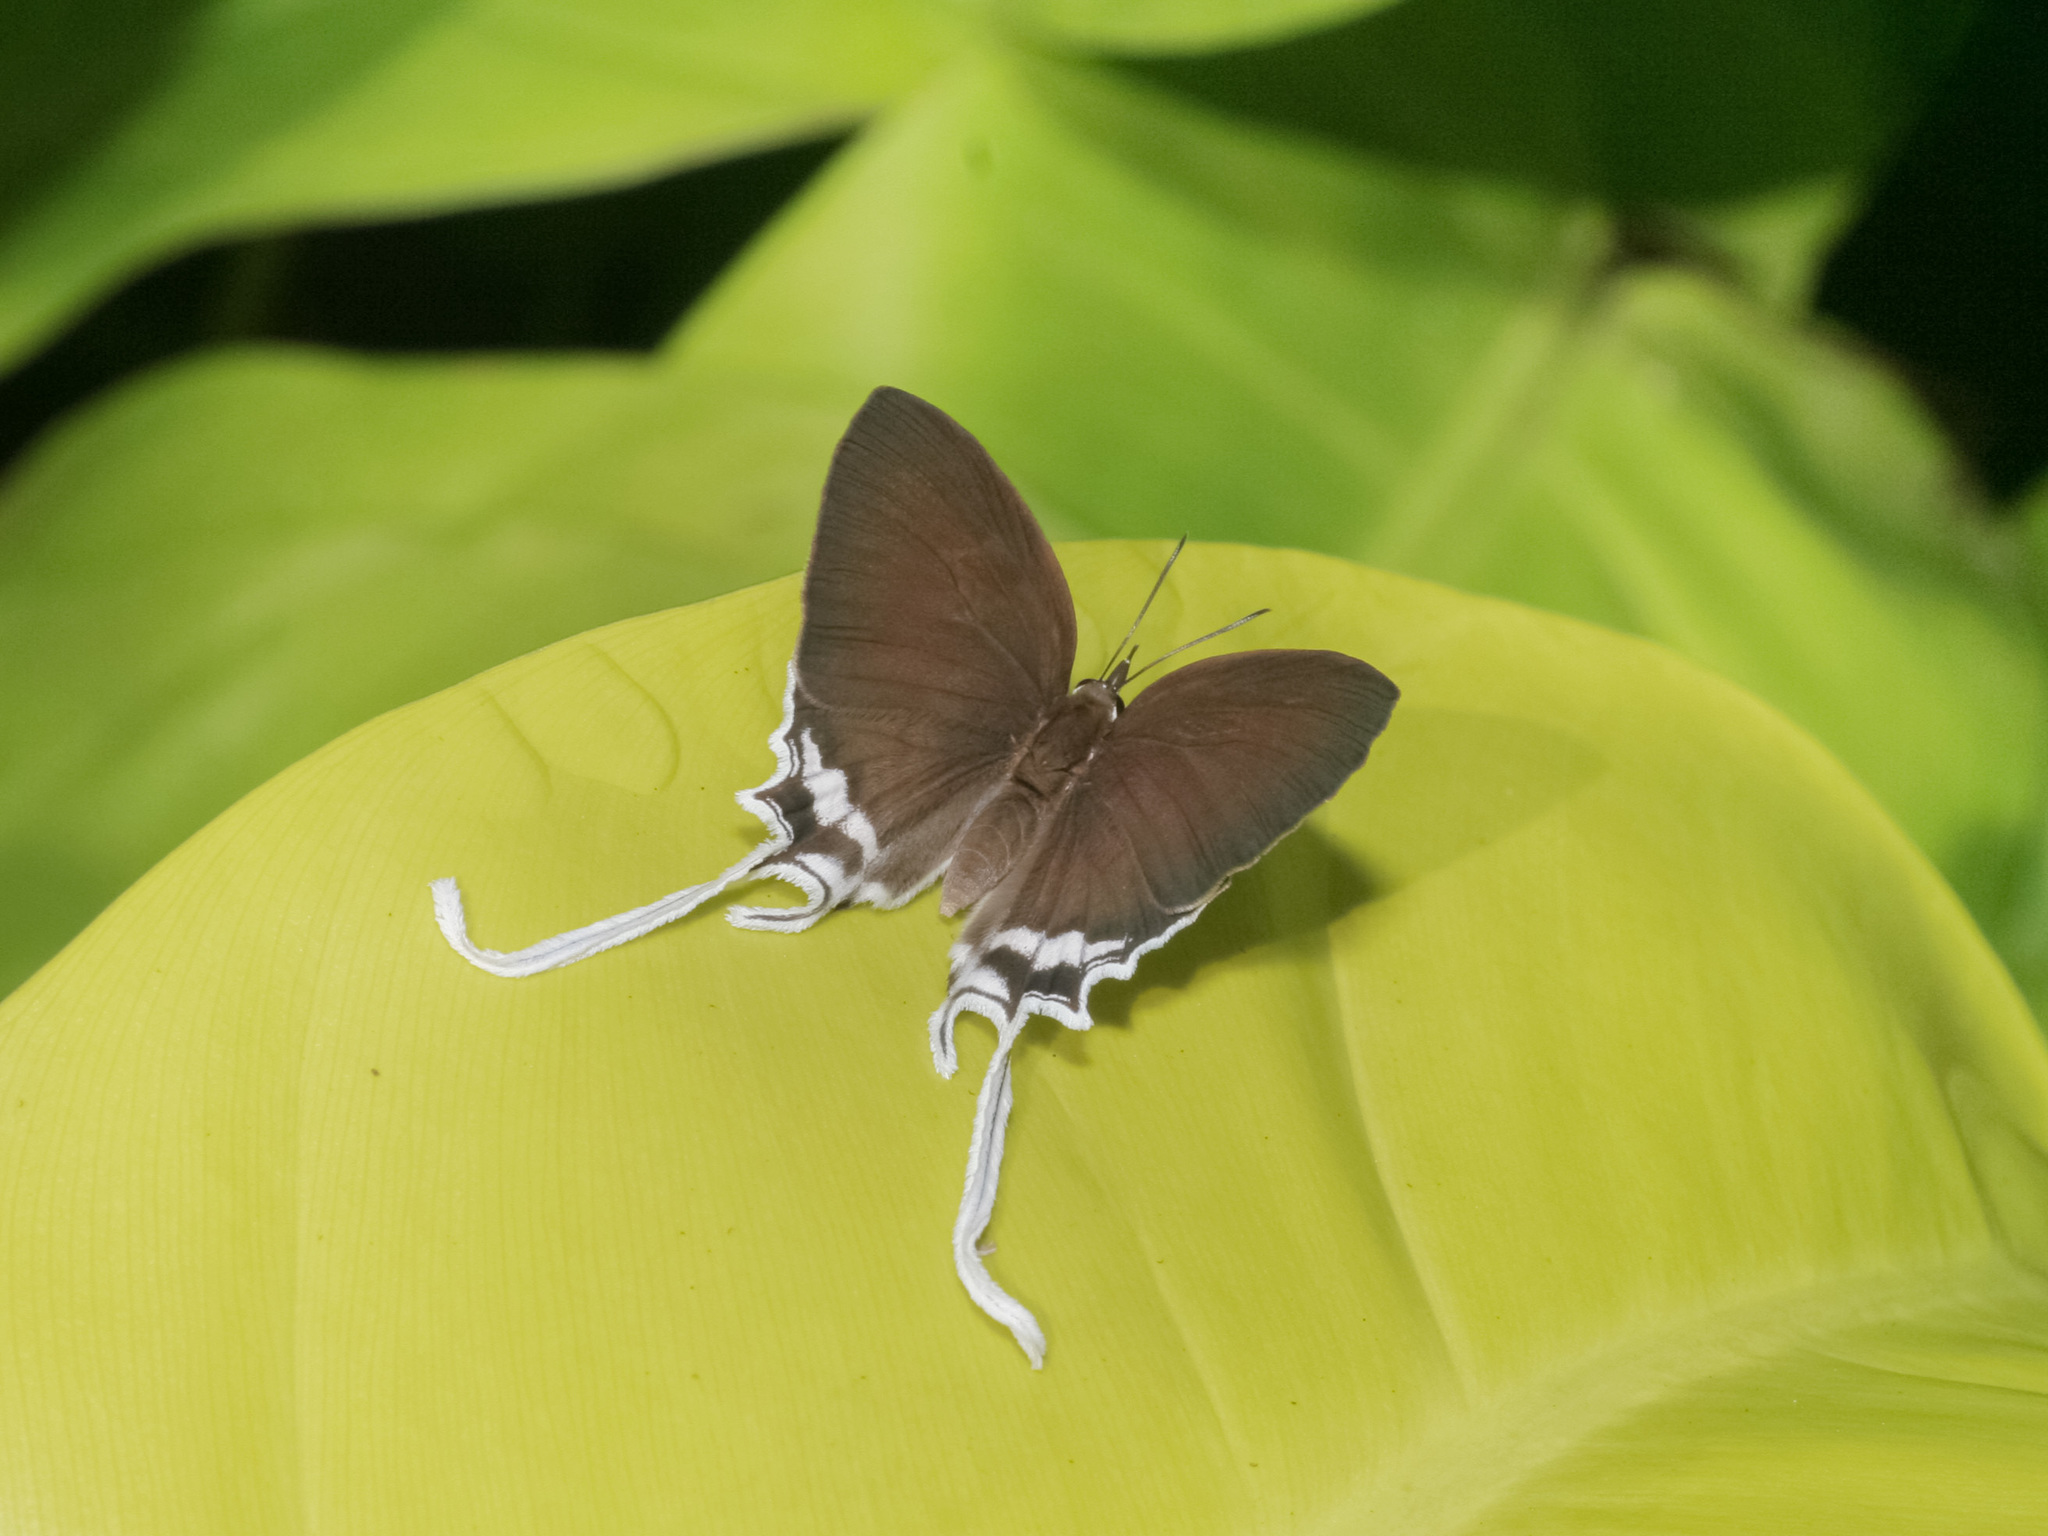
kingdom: Animalia
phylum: Arthropoda
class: Insecta
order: Lepidoptera
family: Lycaenidae
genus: Cheritra
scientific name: Cheritra freja
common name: Common imperial
